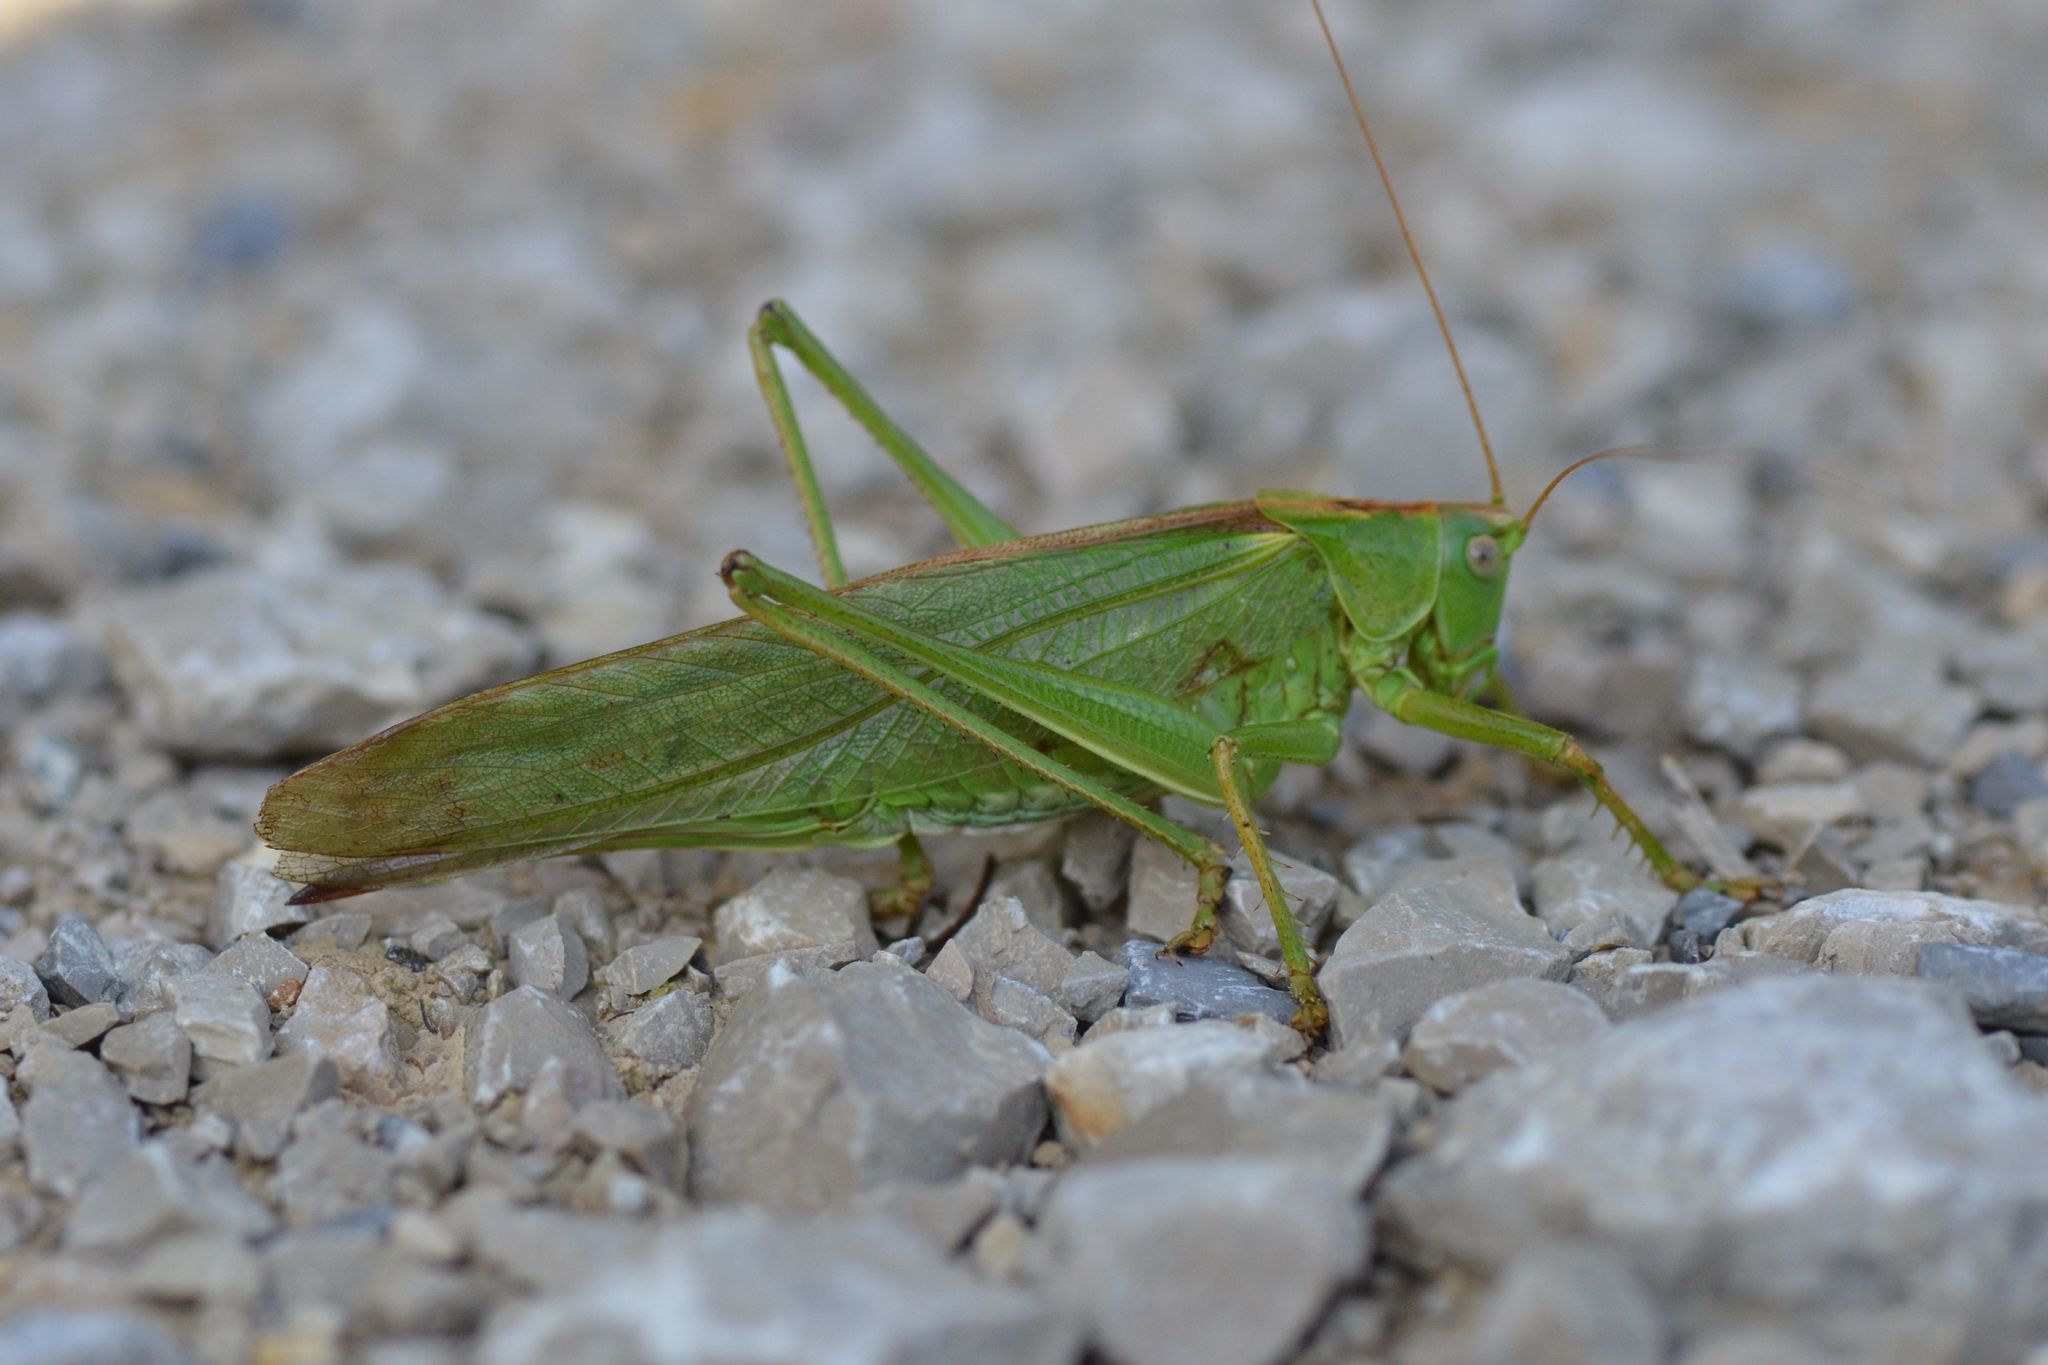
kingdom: Animalia
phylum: Arthropoda
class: Insecta
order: Orthoptera
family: Tettigoniidae
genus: Tettigonia
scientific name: Tettigonia viridissima
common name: Great green bush-cricket
